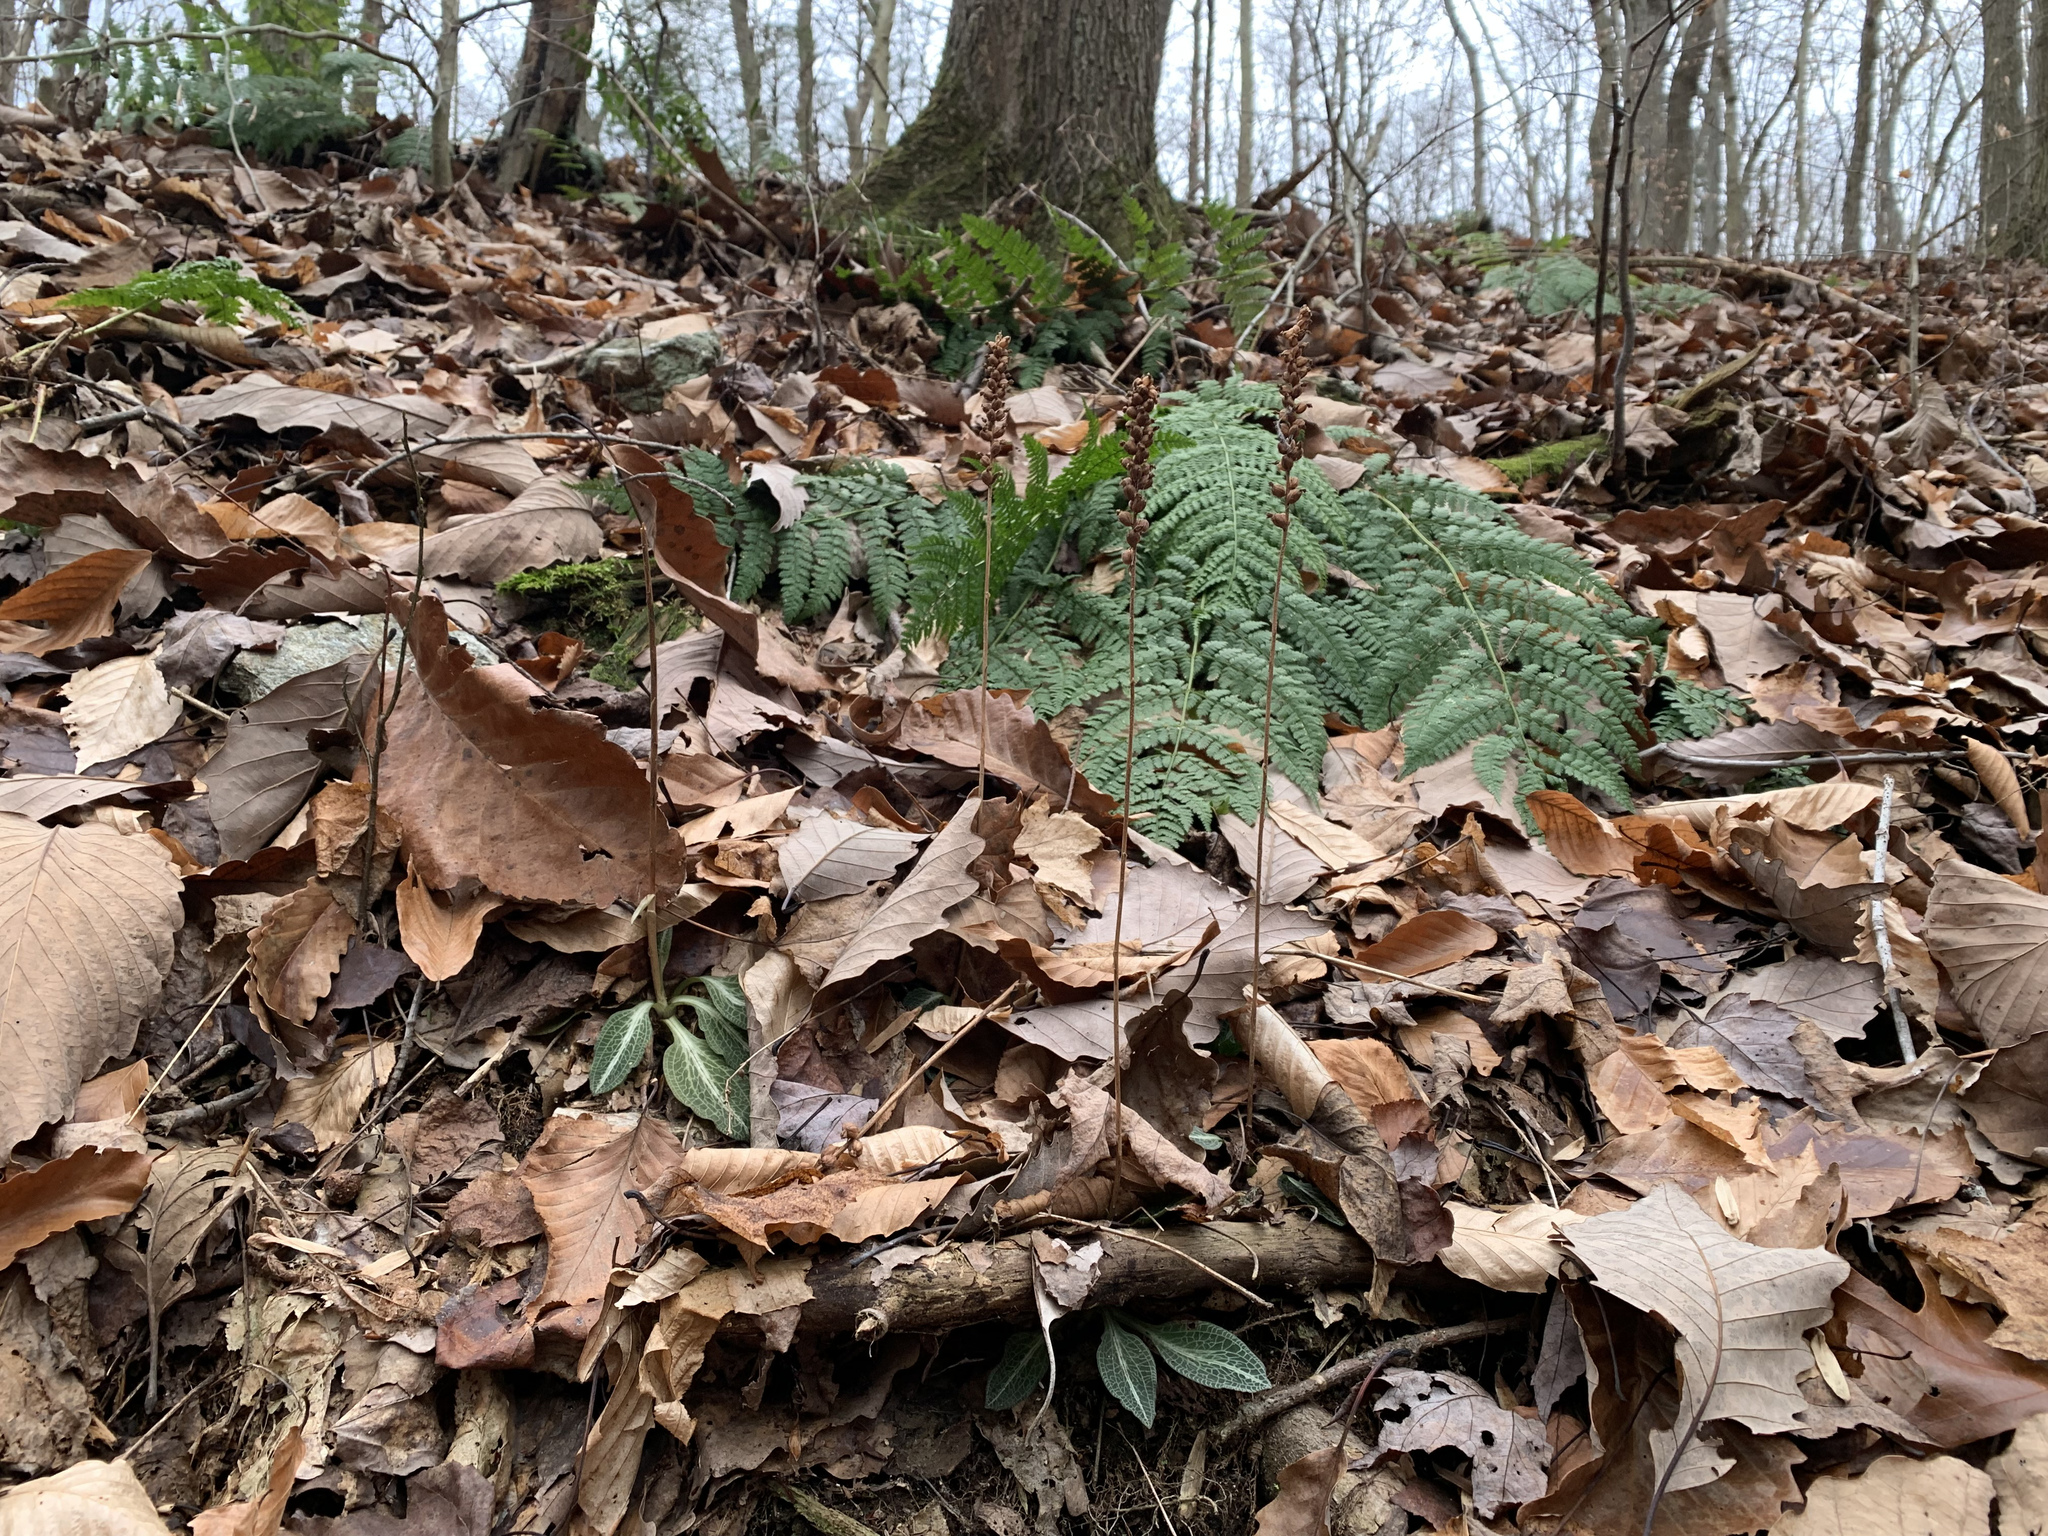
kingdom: Plantae
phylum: Tracheophyta
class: Liliopsida
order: Asparagales
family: Orchidaceae
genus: Goodyera
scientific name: Goodyera pubescens
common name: Downy rattlesnake-plantain
